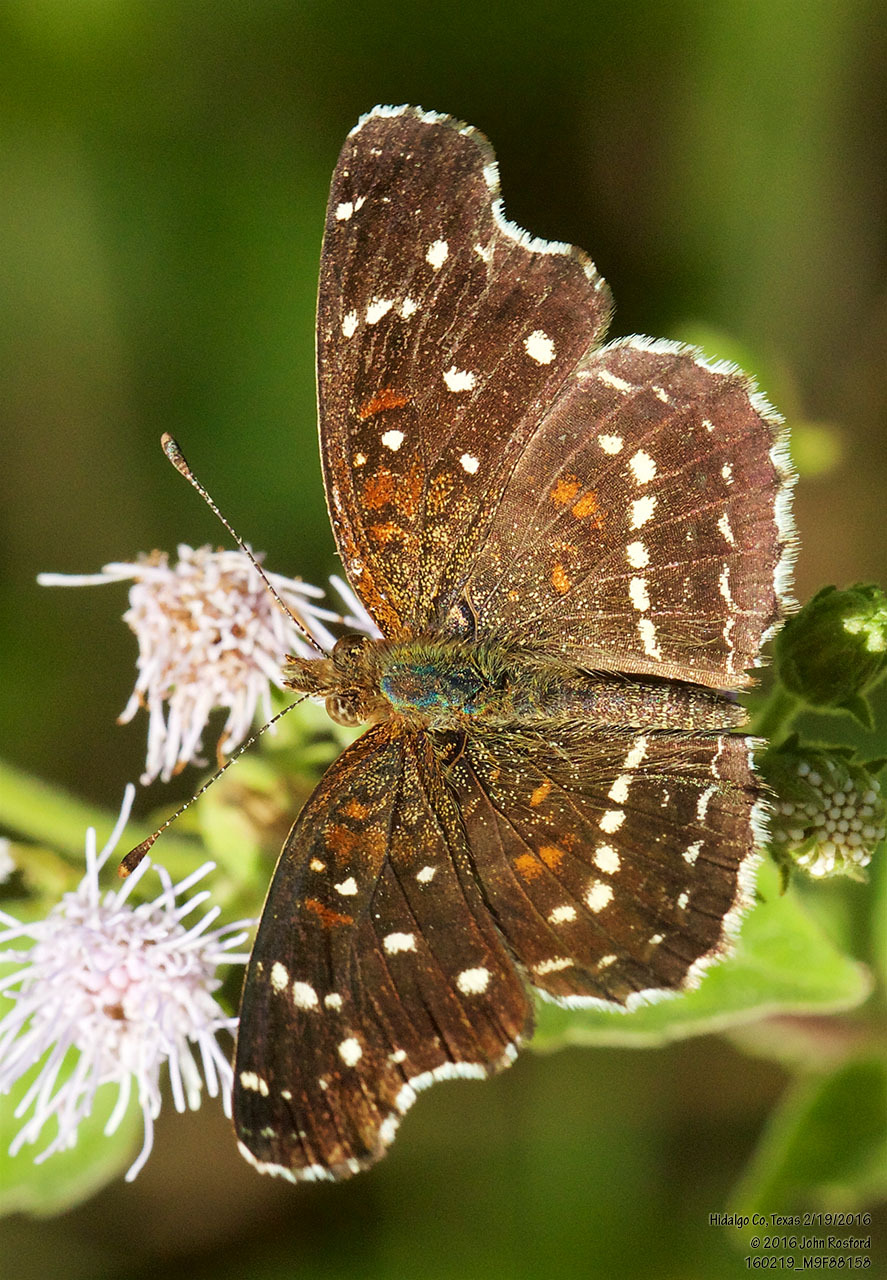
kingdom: Animalia
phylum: Arthropoda
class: Insecta
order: Lepidoptera
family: Nymphalidae
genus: Anthanassa
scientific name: Anthanassa texana
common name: Texan crescent
